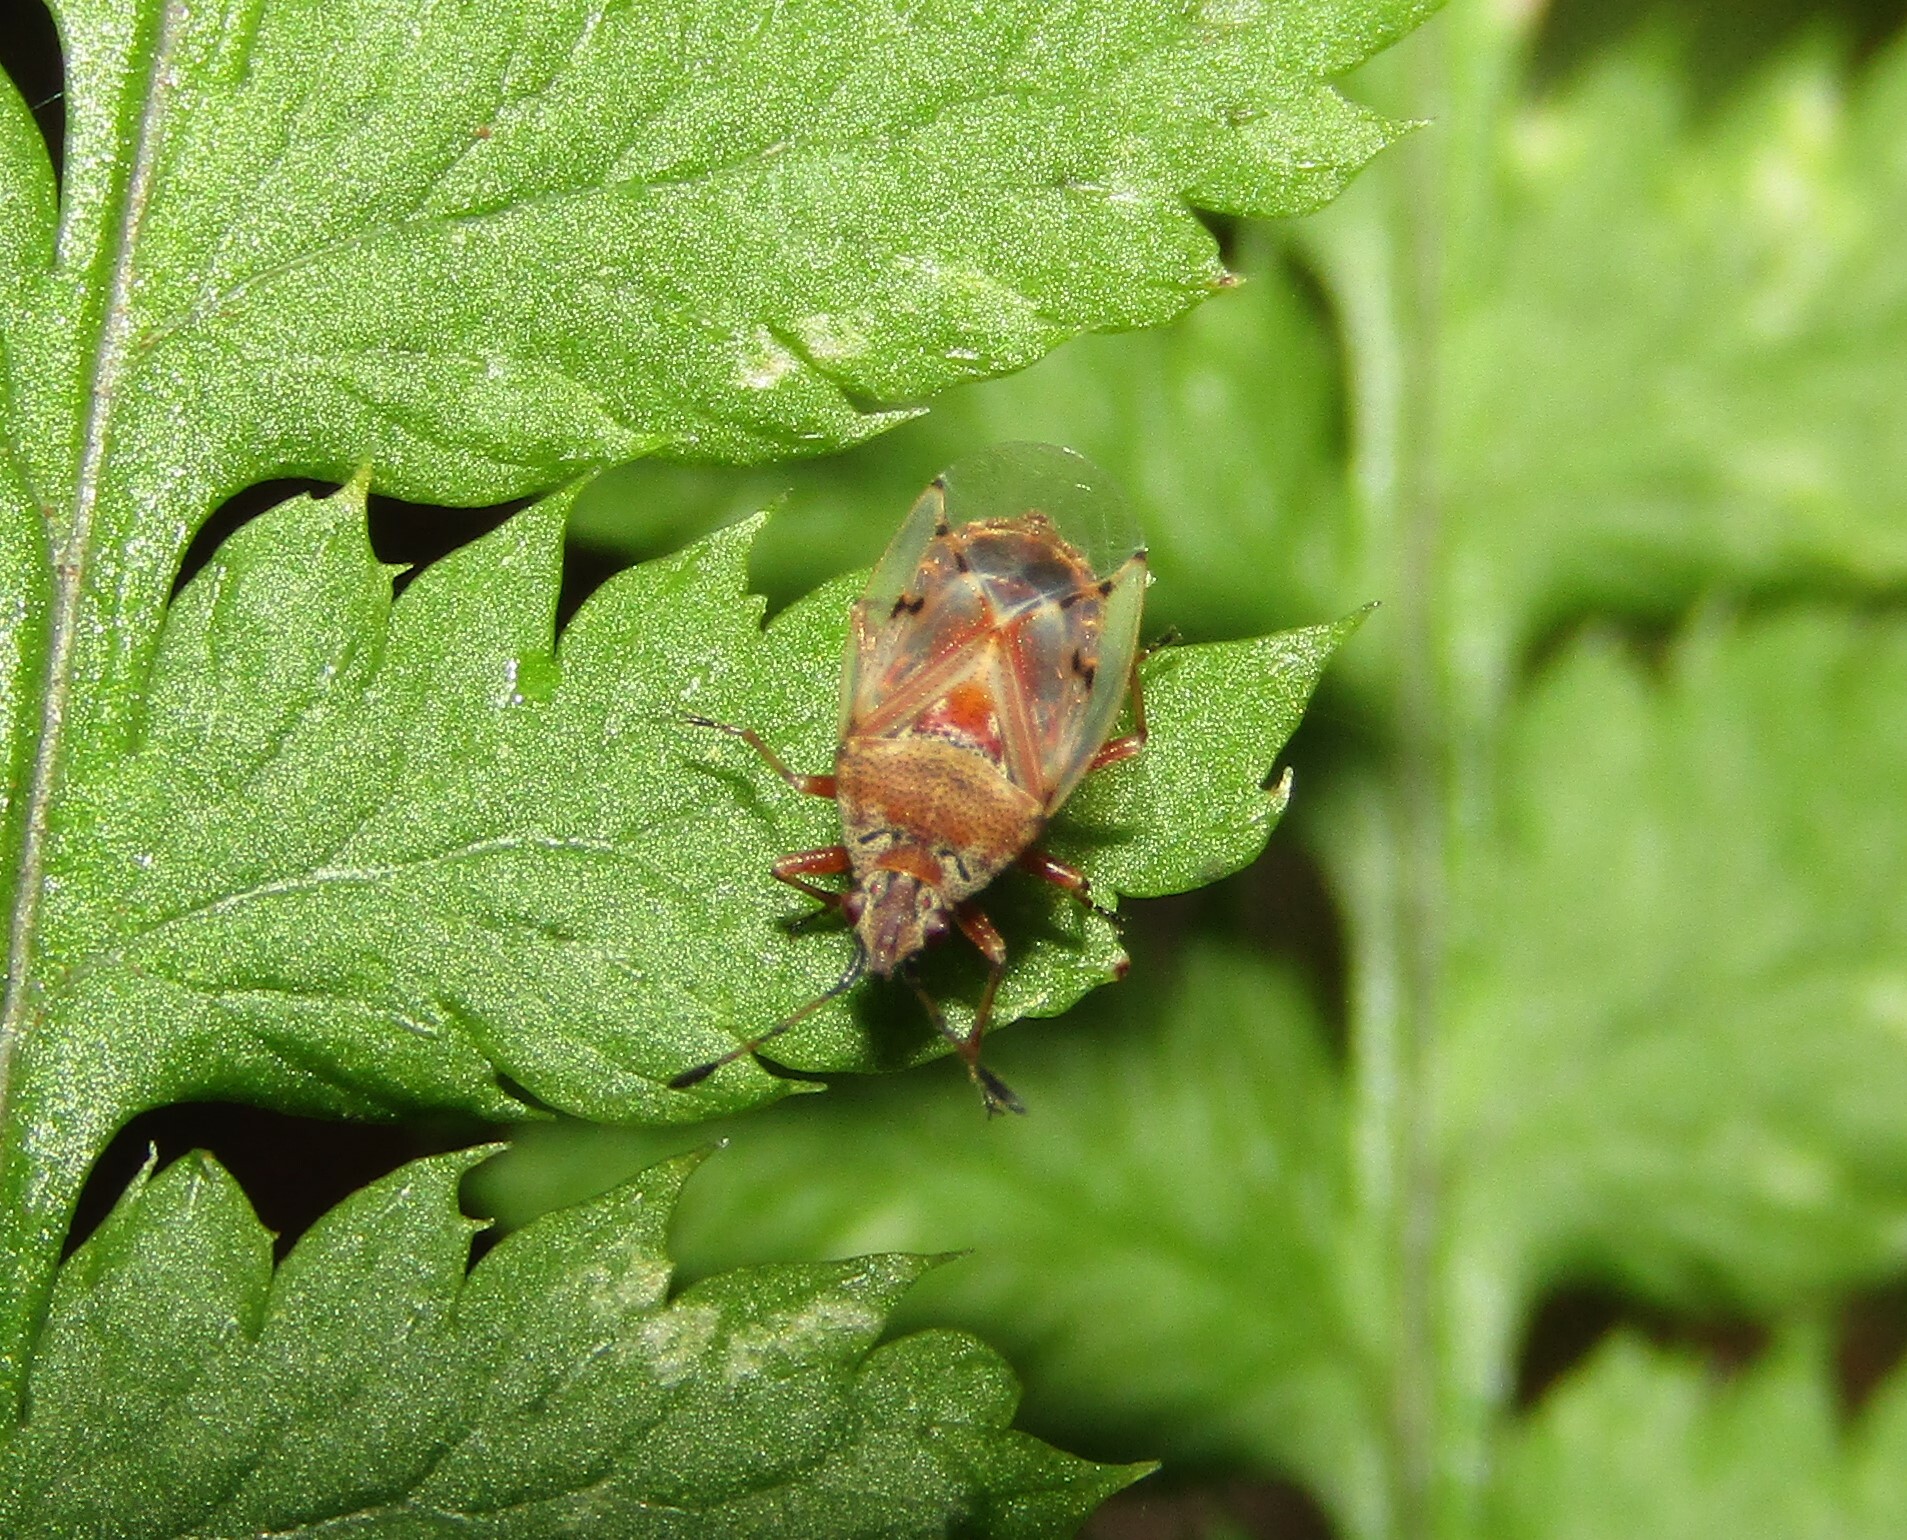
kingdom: Animalia
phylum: Arthropoda
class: Insecta
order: Hemiptera
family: Lygaeidae
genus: Kleidocerys
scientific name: Kleidocerys resedae
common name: Birch catkin bug
